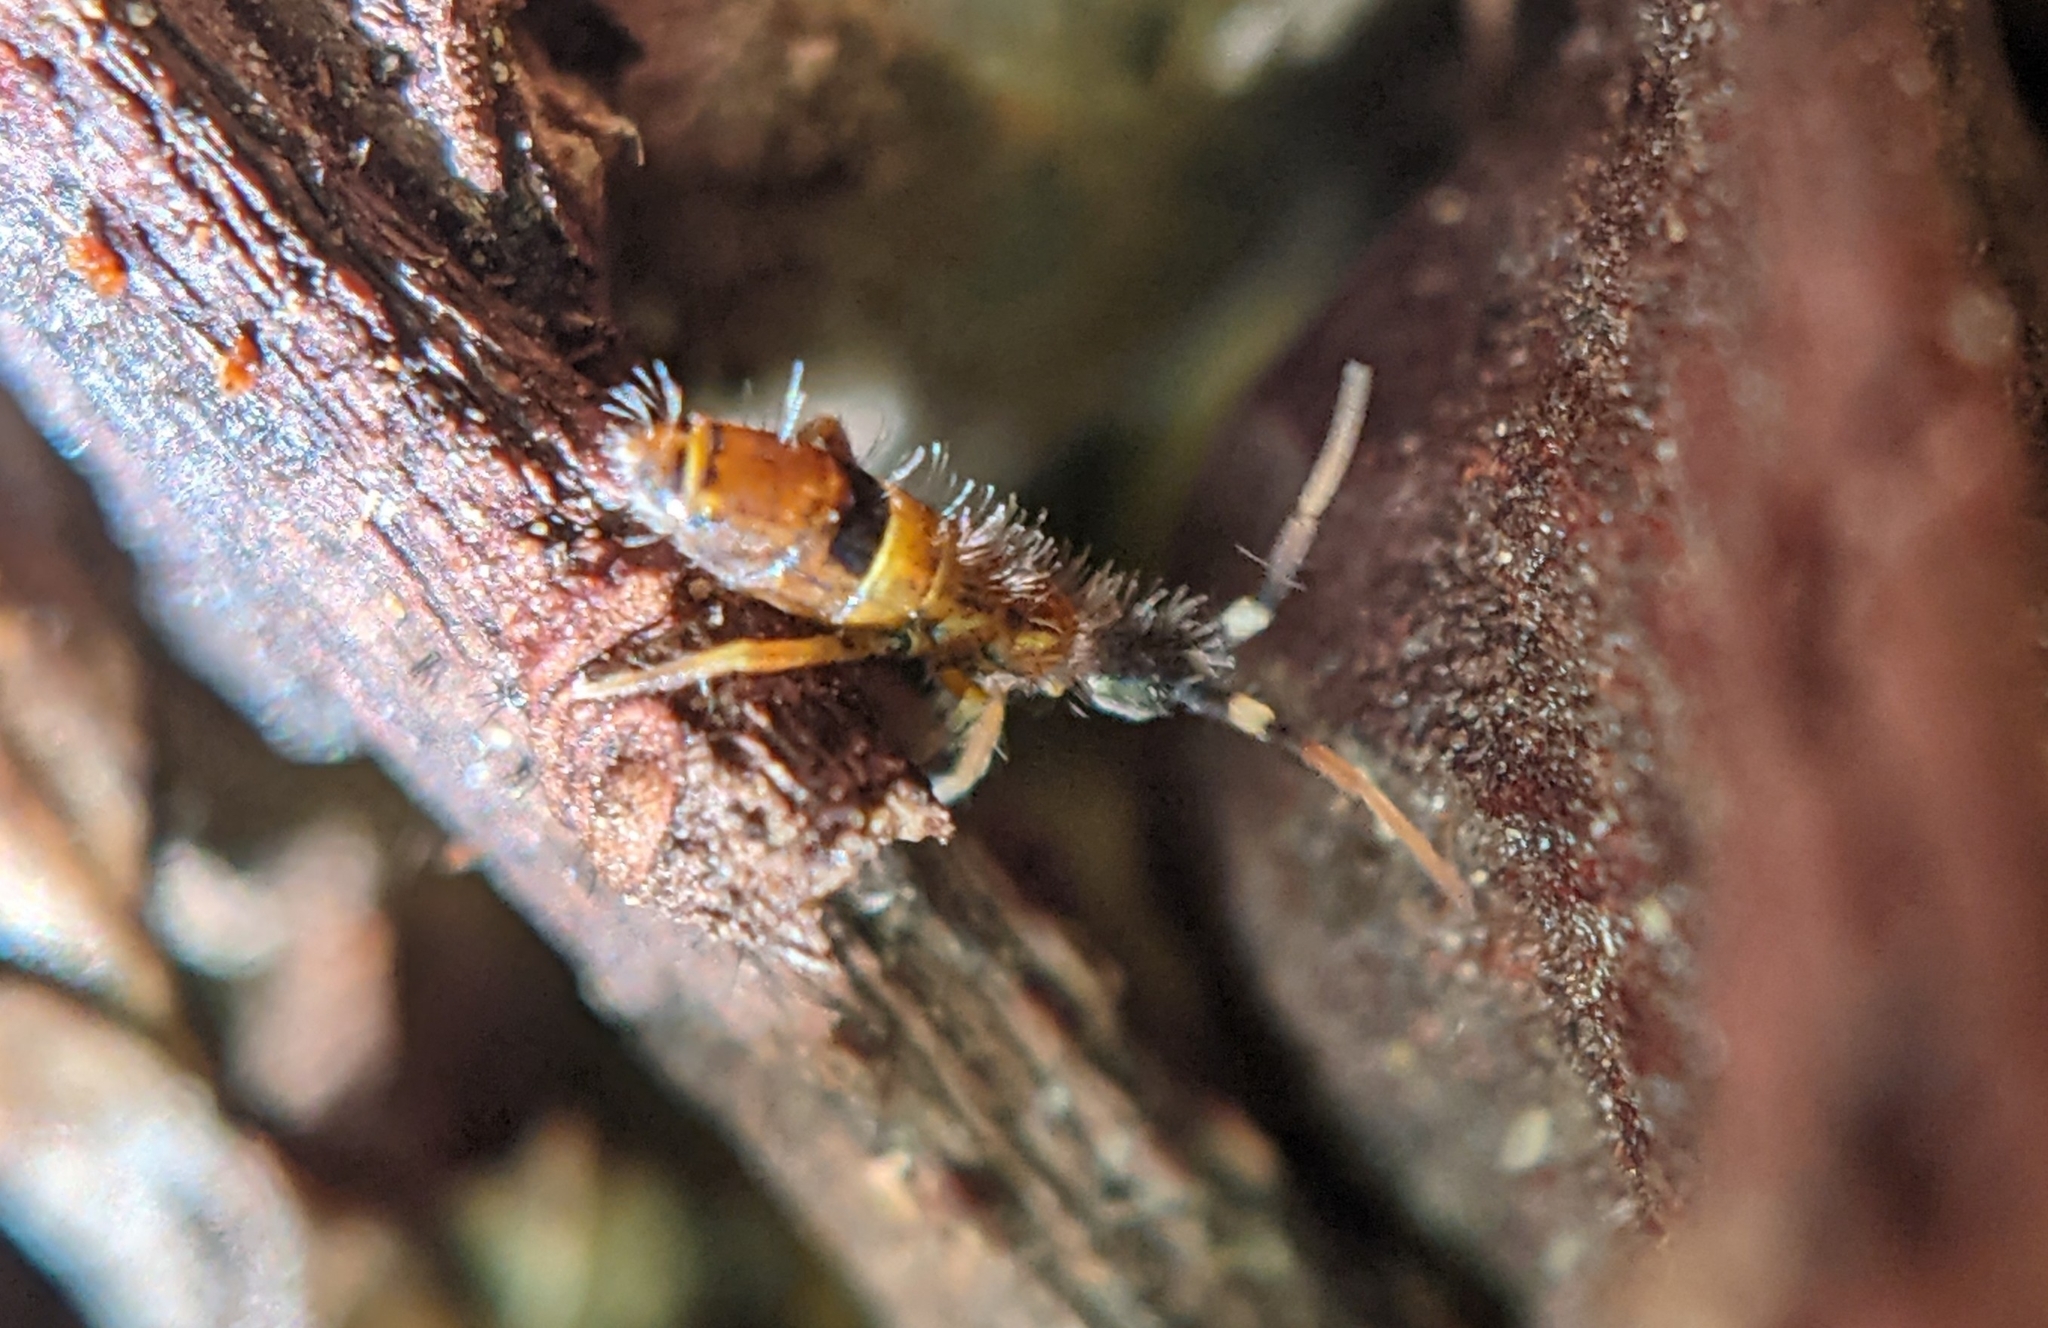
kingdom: Animalia
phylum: Arthropoda
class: Collembola
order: Entomobryomorpha
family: Orchesellidae
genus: Orchesella
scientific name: Orchesella cincta
